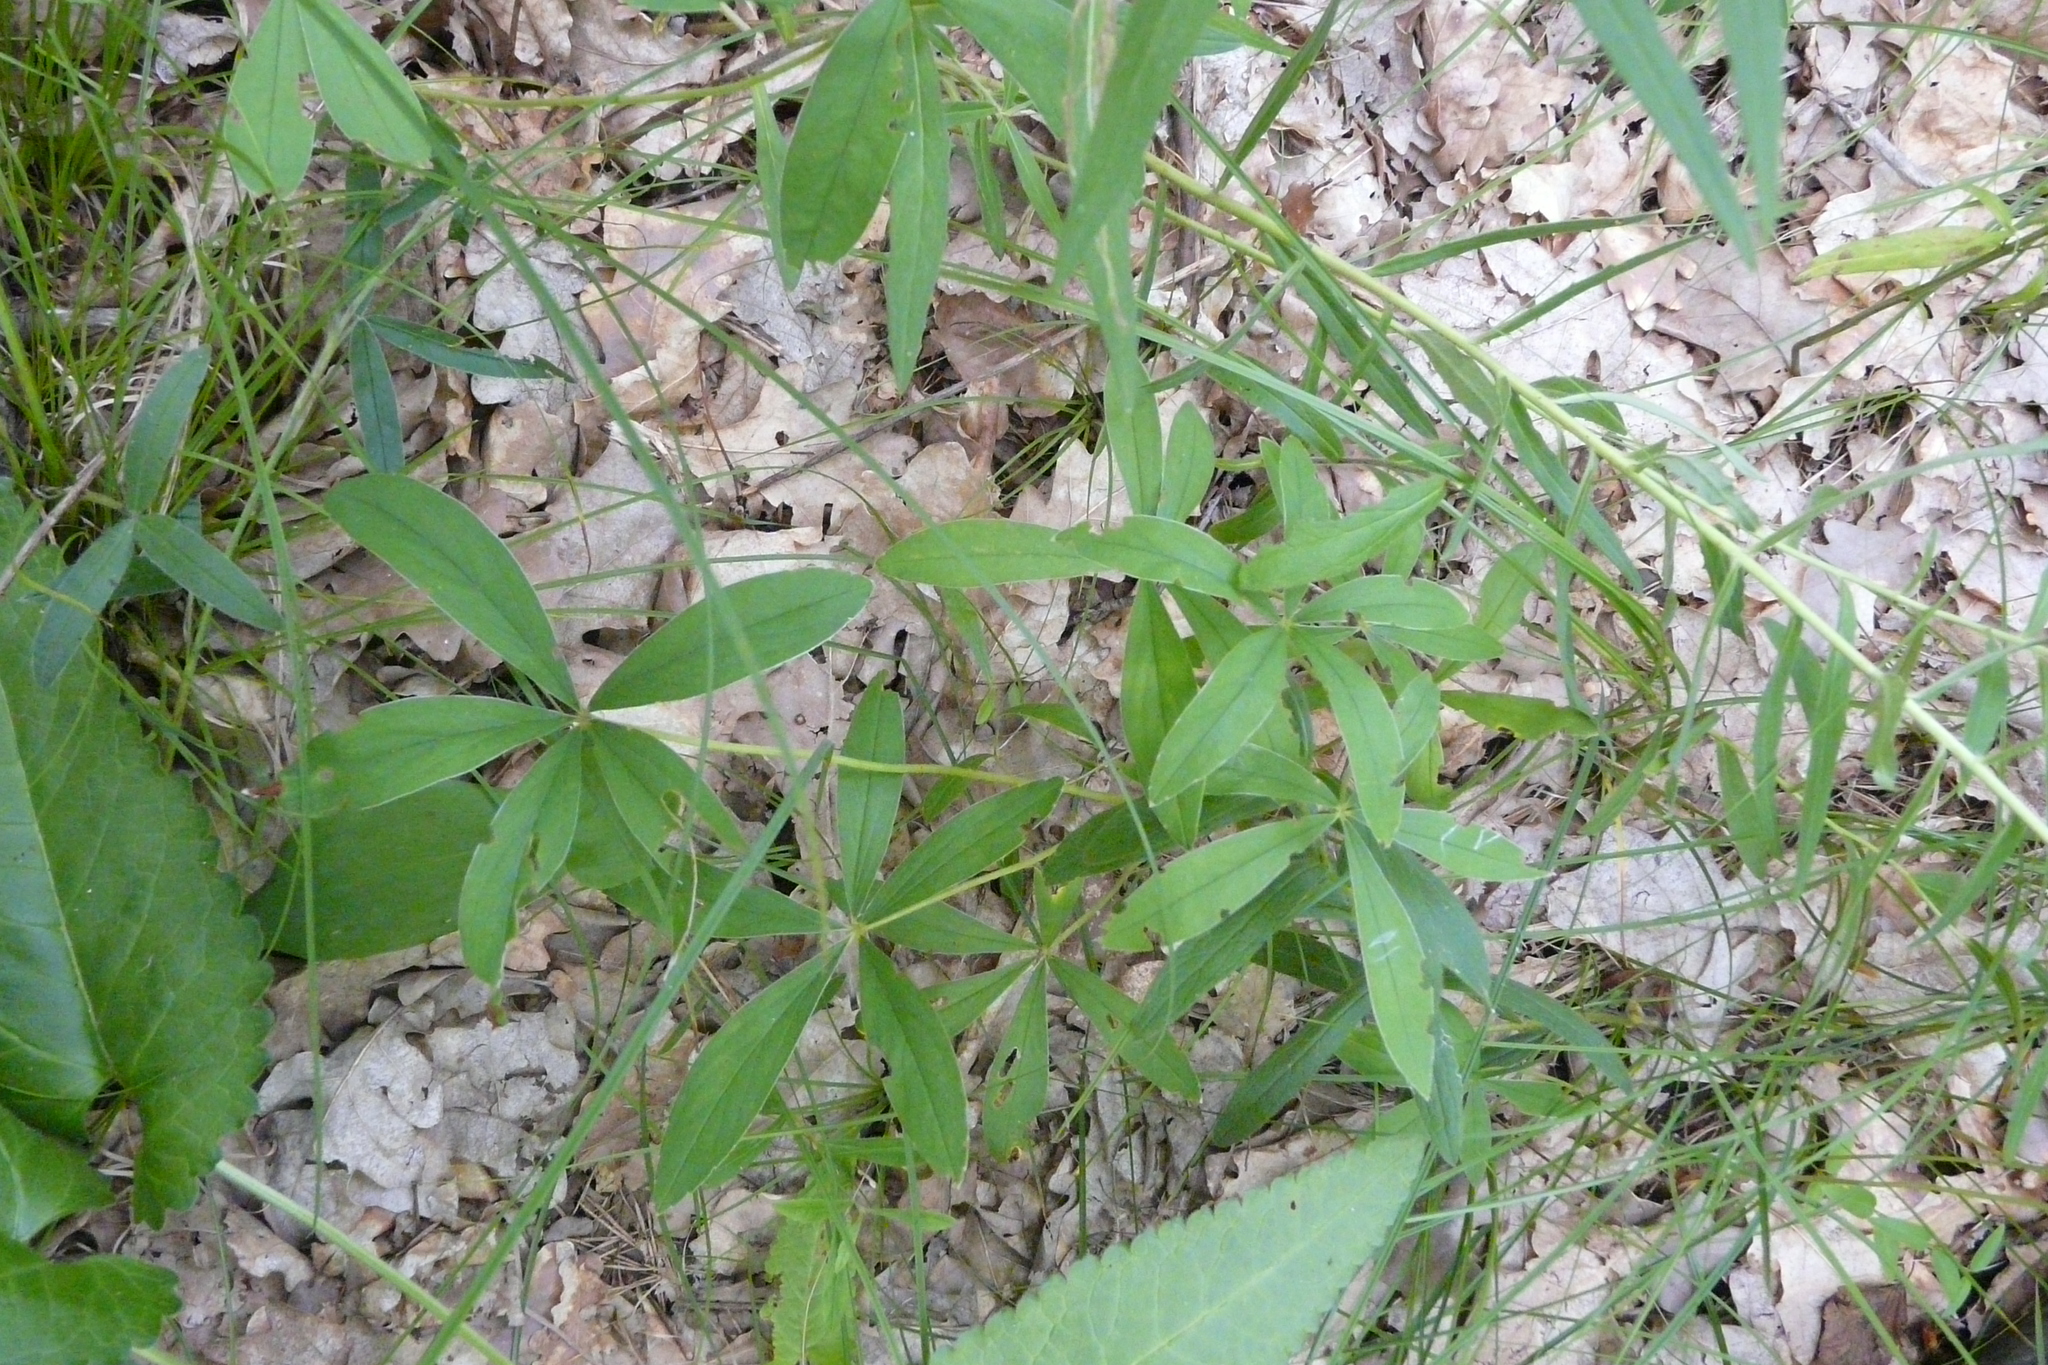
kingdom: Plantae
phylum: Tracheophyta
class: Magnoliopsida
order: Rosales
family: Rosaceae
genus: Potentilla
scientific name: Potentilla alba
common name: White cinquefoil
